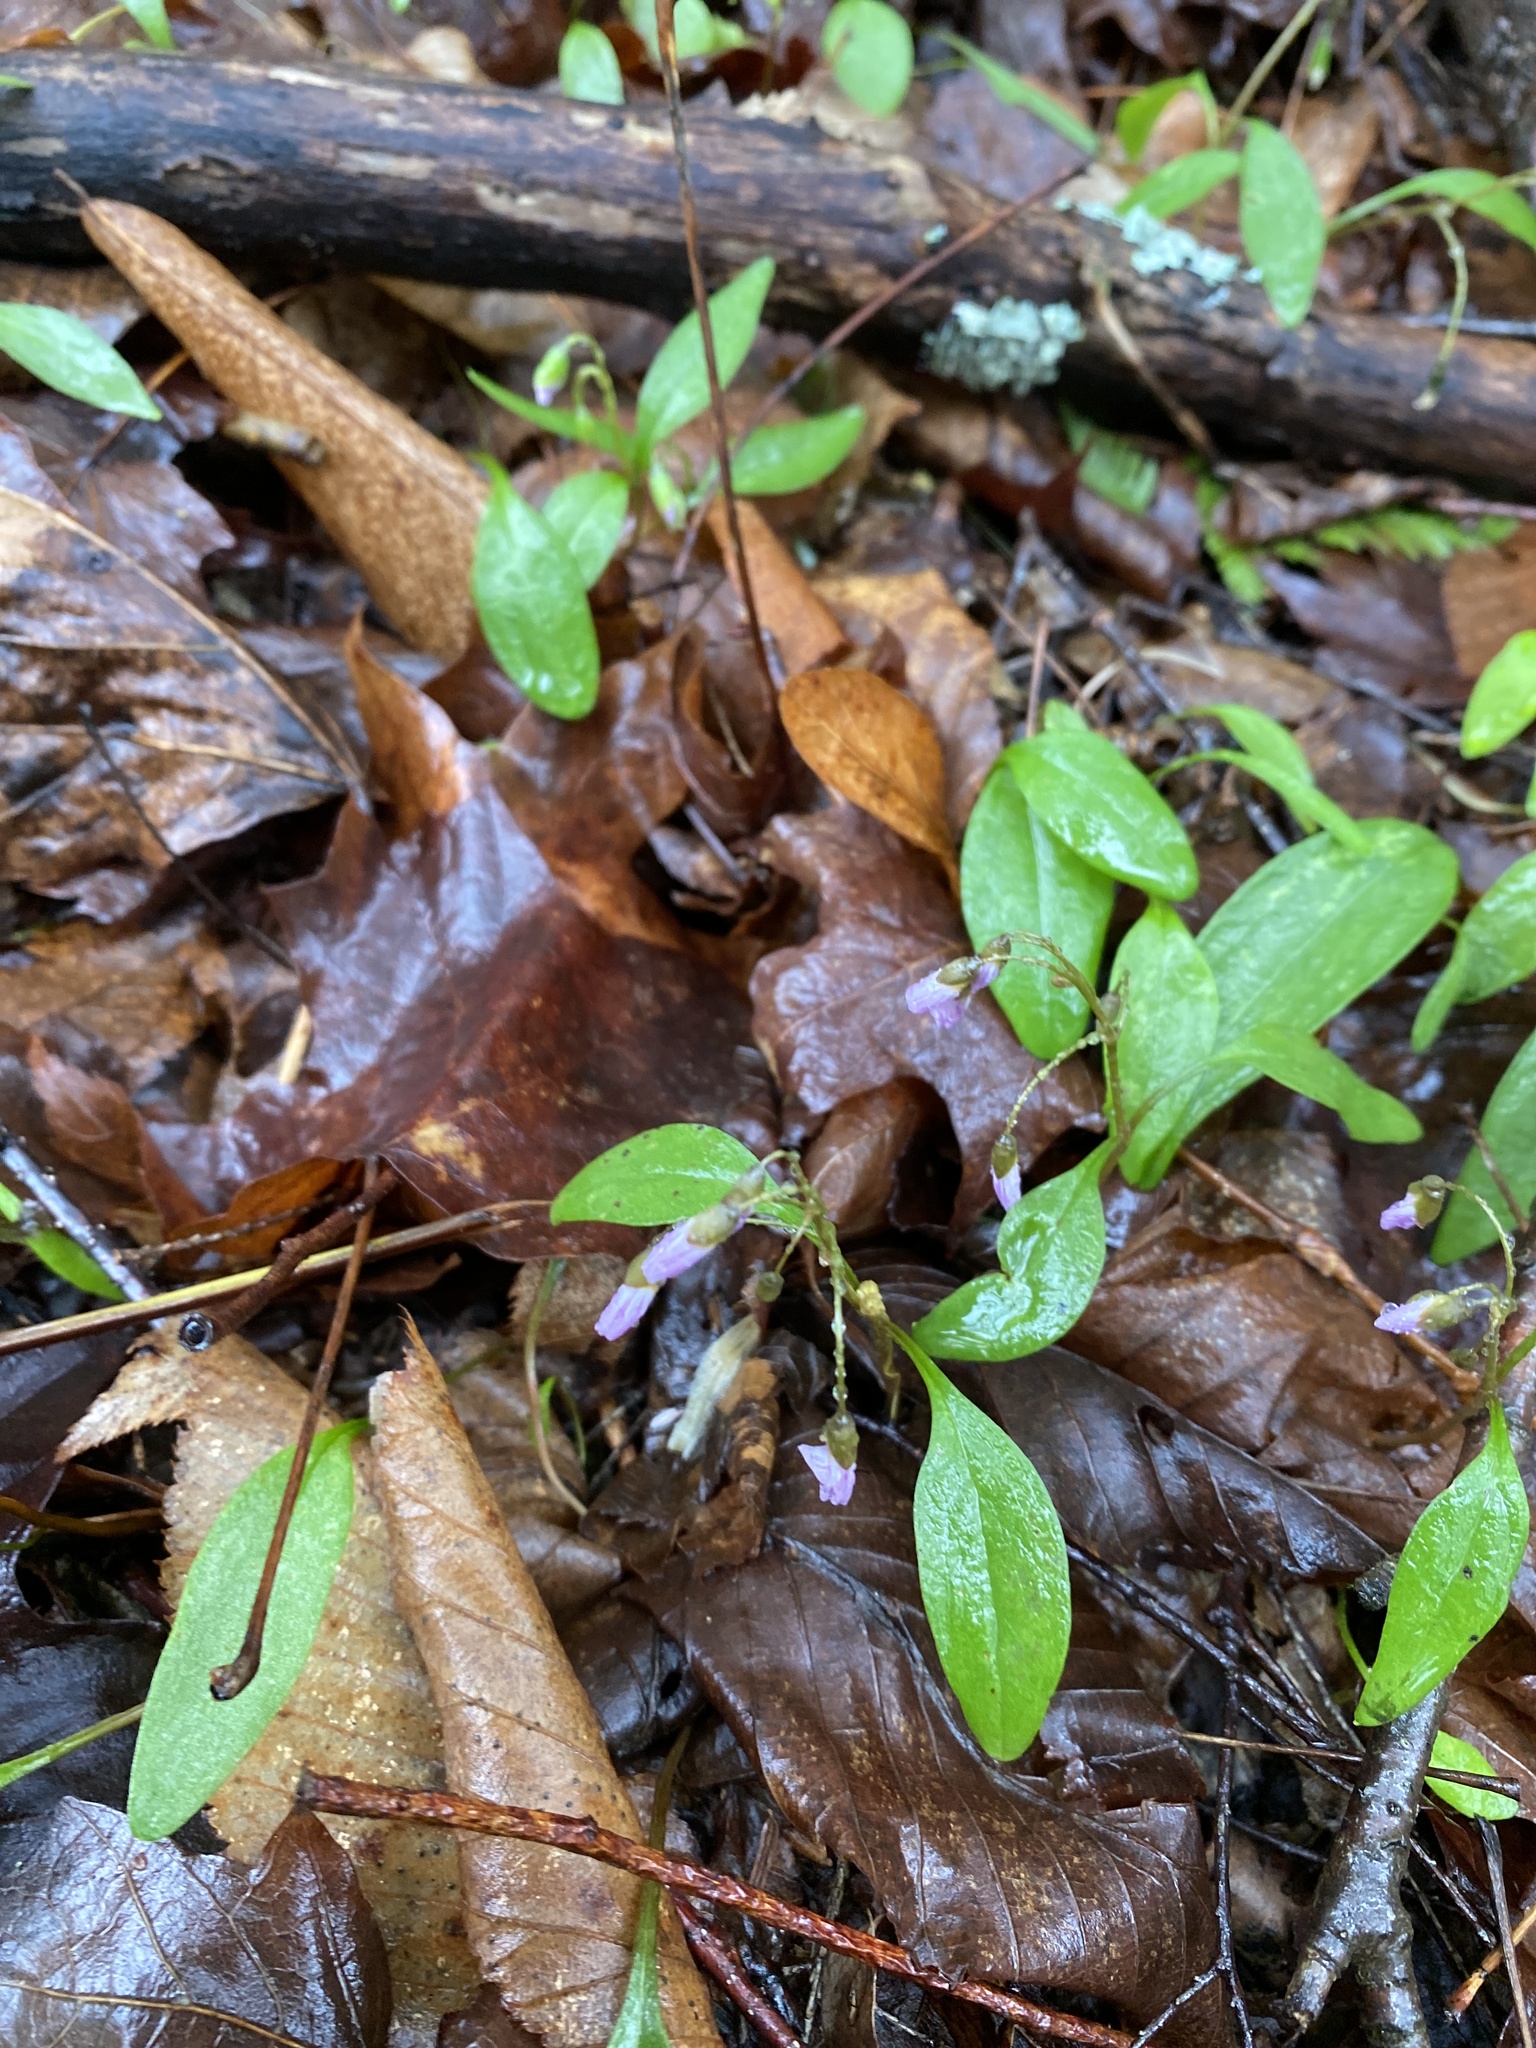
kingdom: Plantae
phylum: Tracheophyta
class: Magnoliopsida
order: Caryophyllales
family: Montiaceae
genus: Claytonia
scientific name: Claytonia caroliniana
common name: Carolina spring beauty
